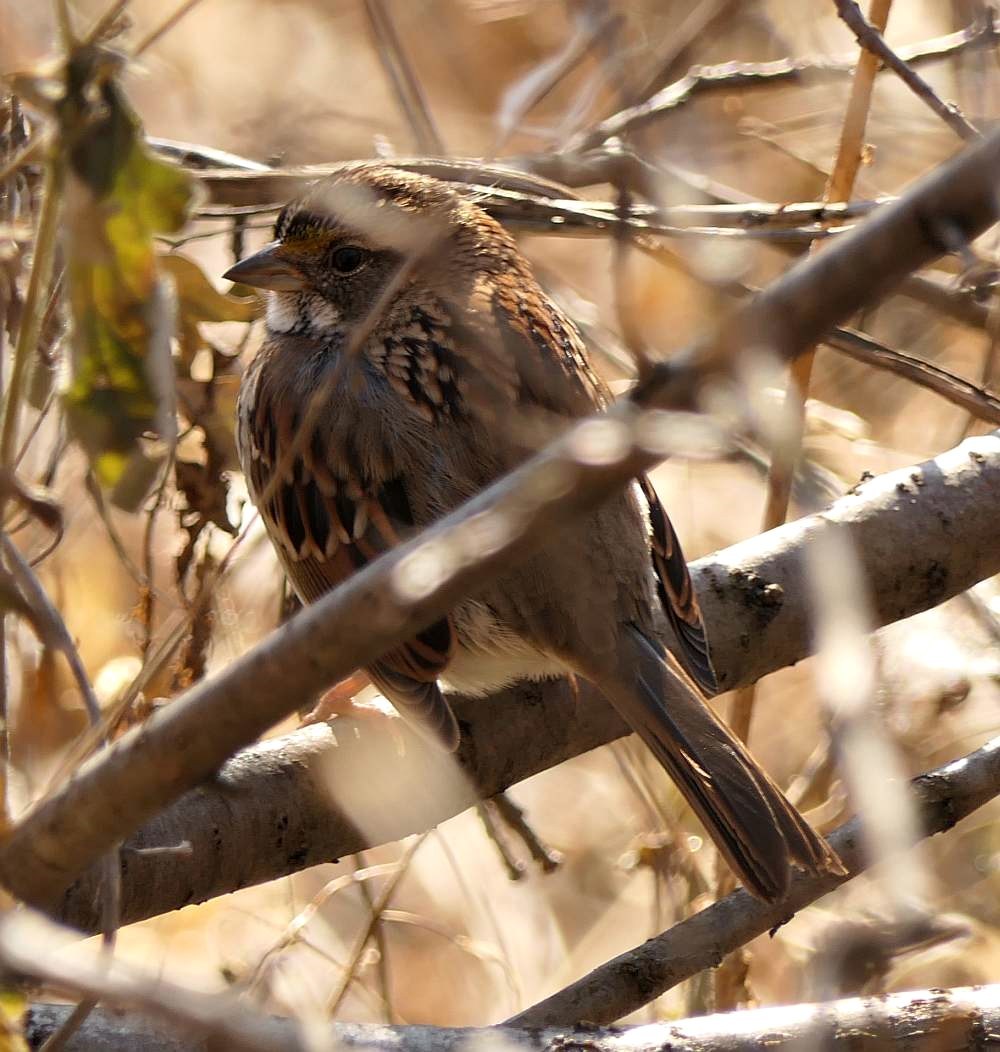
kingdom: Animalia
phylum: Chordata
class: Aves
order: Passeriformes
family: Passerellidae
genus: Zonotrichia
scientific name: Zonotrichia albicollis
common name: White-throated sparrow
